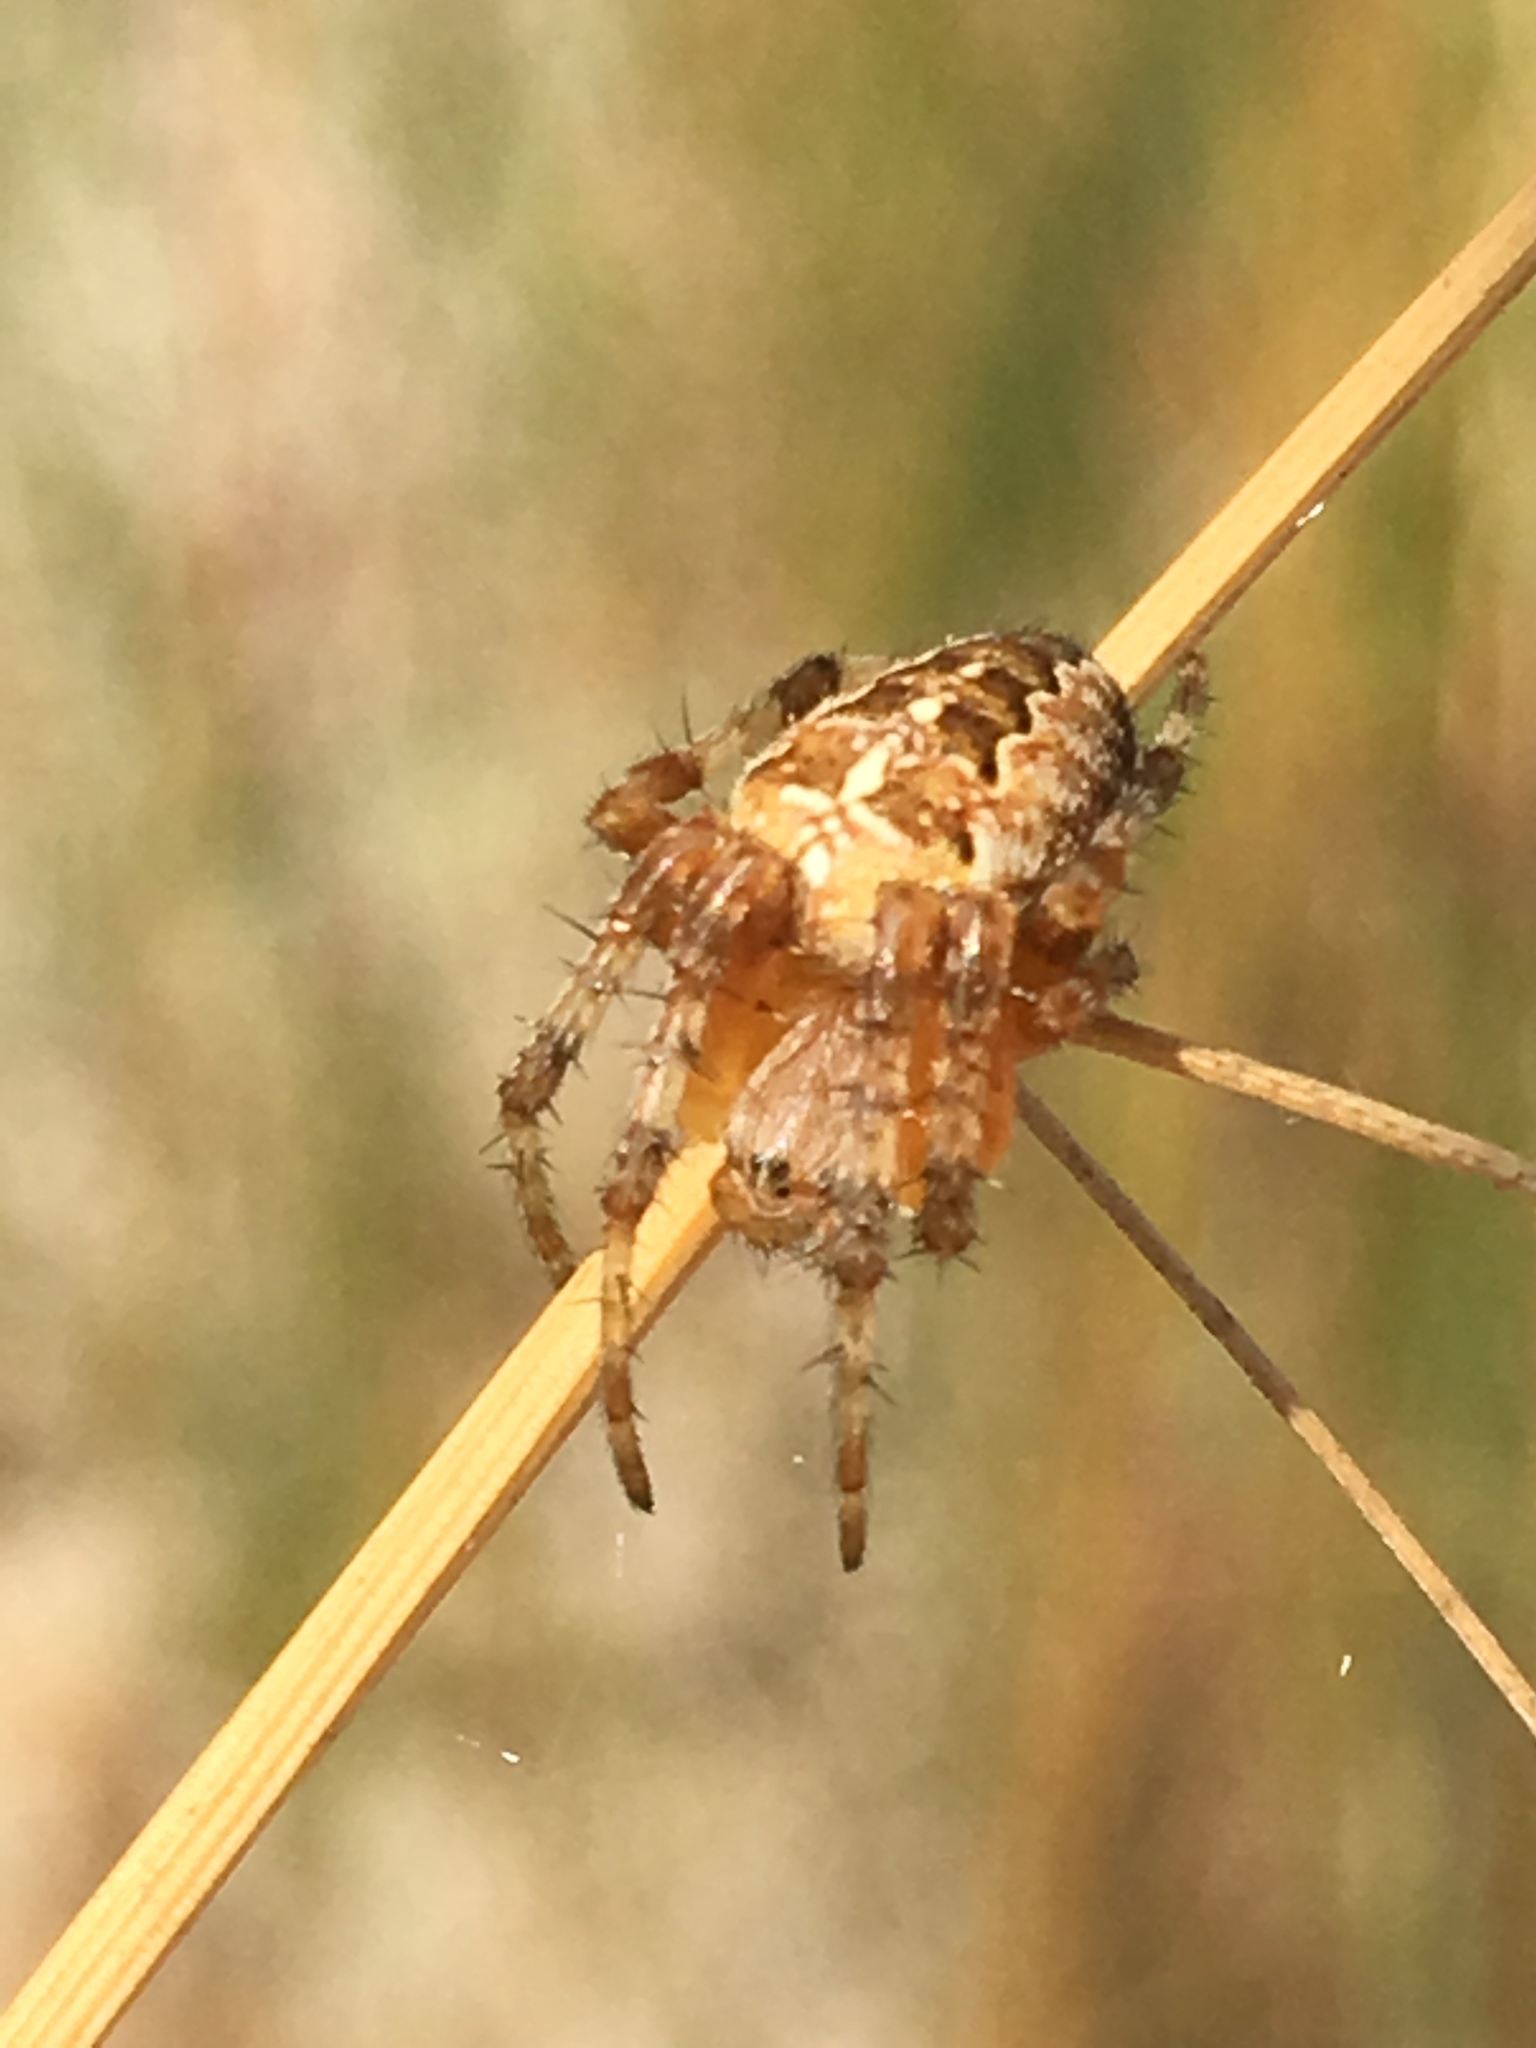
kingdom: Animalia
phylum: Arthropoda
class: Arachnida
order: Araneae
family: Araneidae
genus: Araneus
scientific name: Araneus diadematus
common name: Cross orbweaver
